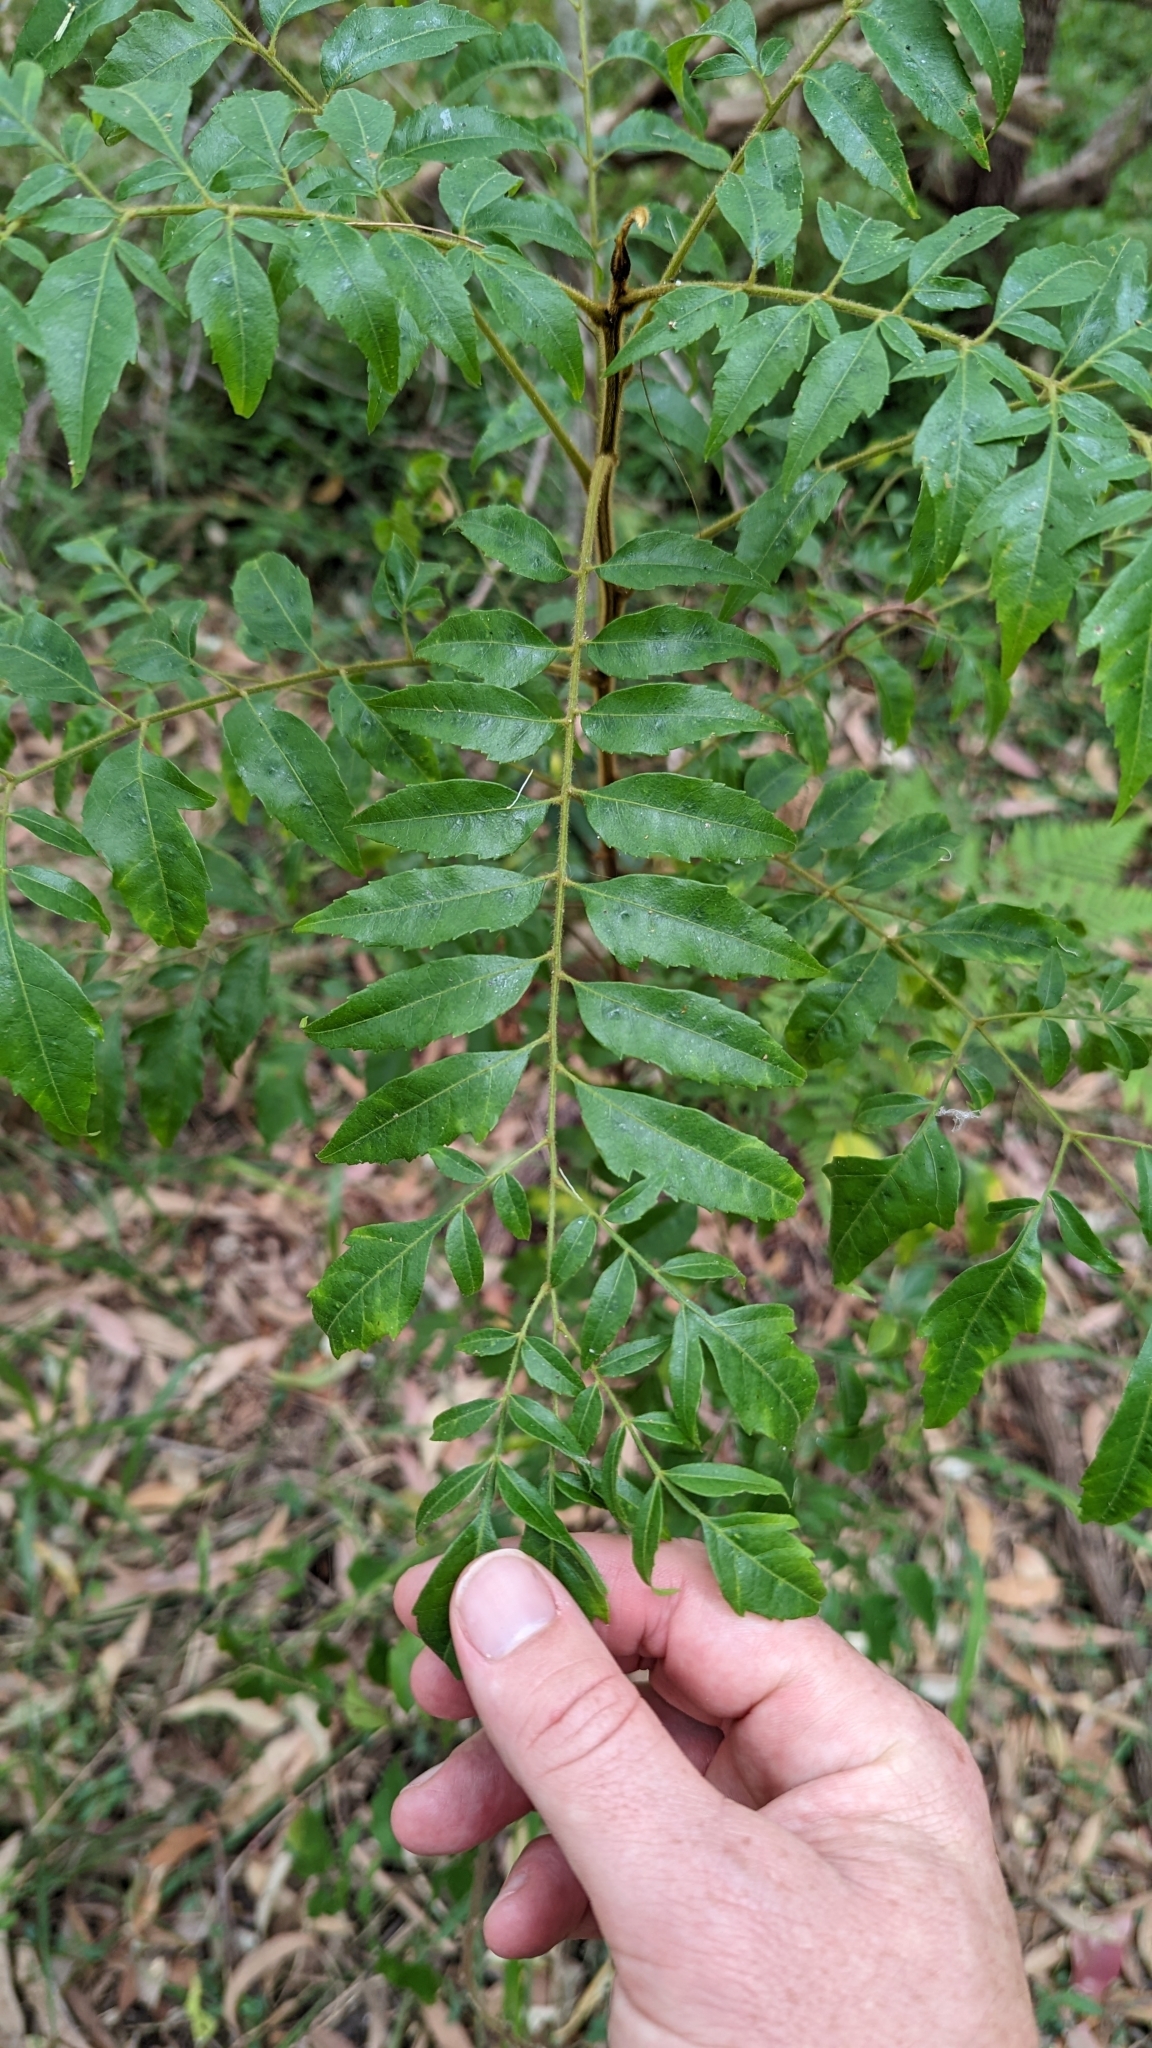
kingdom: Plantae
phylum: Tracheophyta
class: Magnoliopsida
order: Sapindales
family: Sapindaceae
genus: Jagera
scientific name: Jagera pseudorhus
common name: Fern-leaf-tamarind
